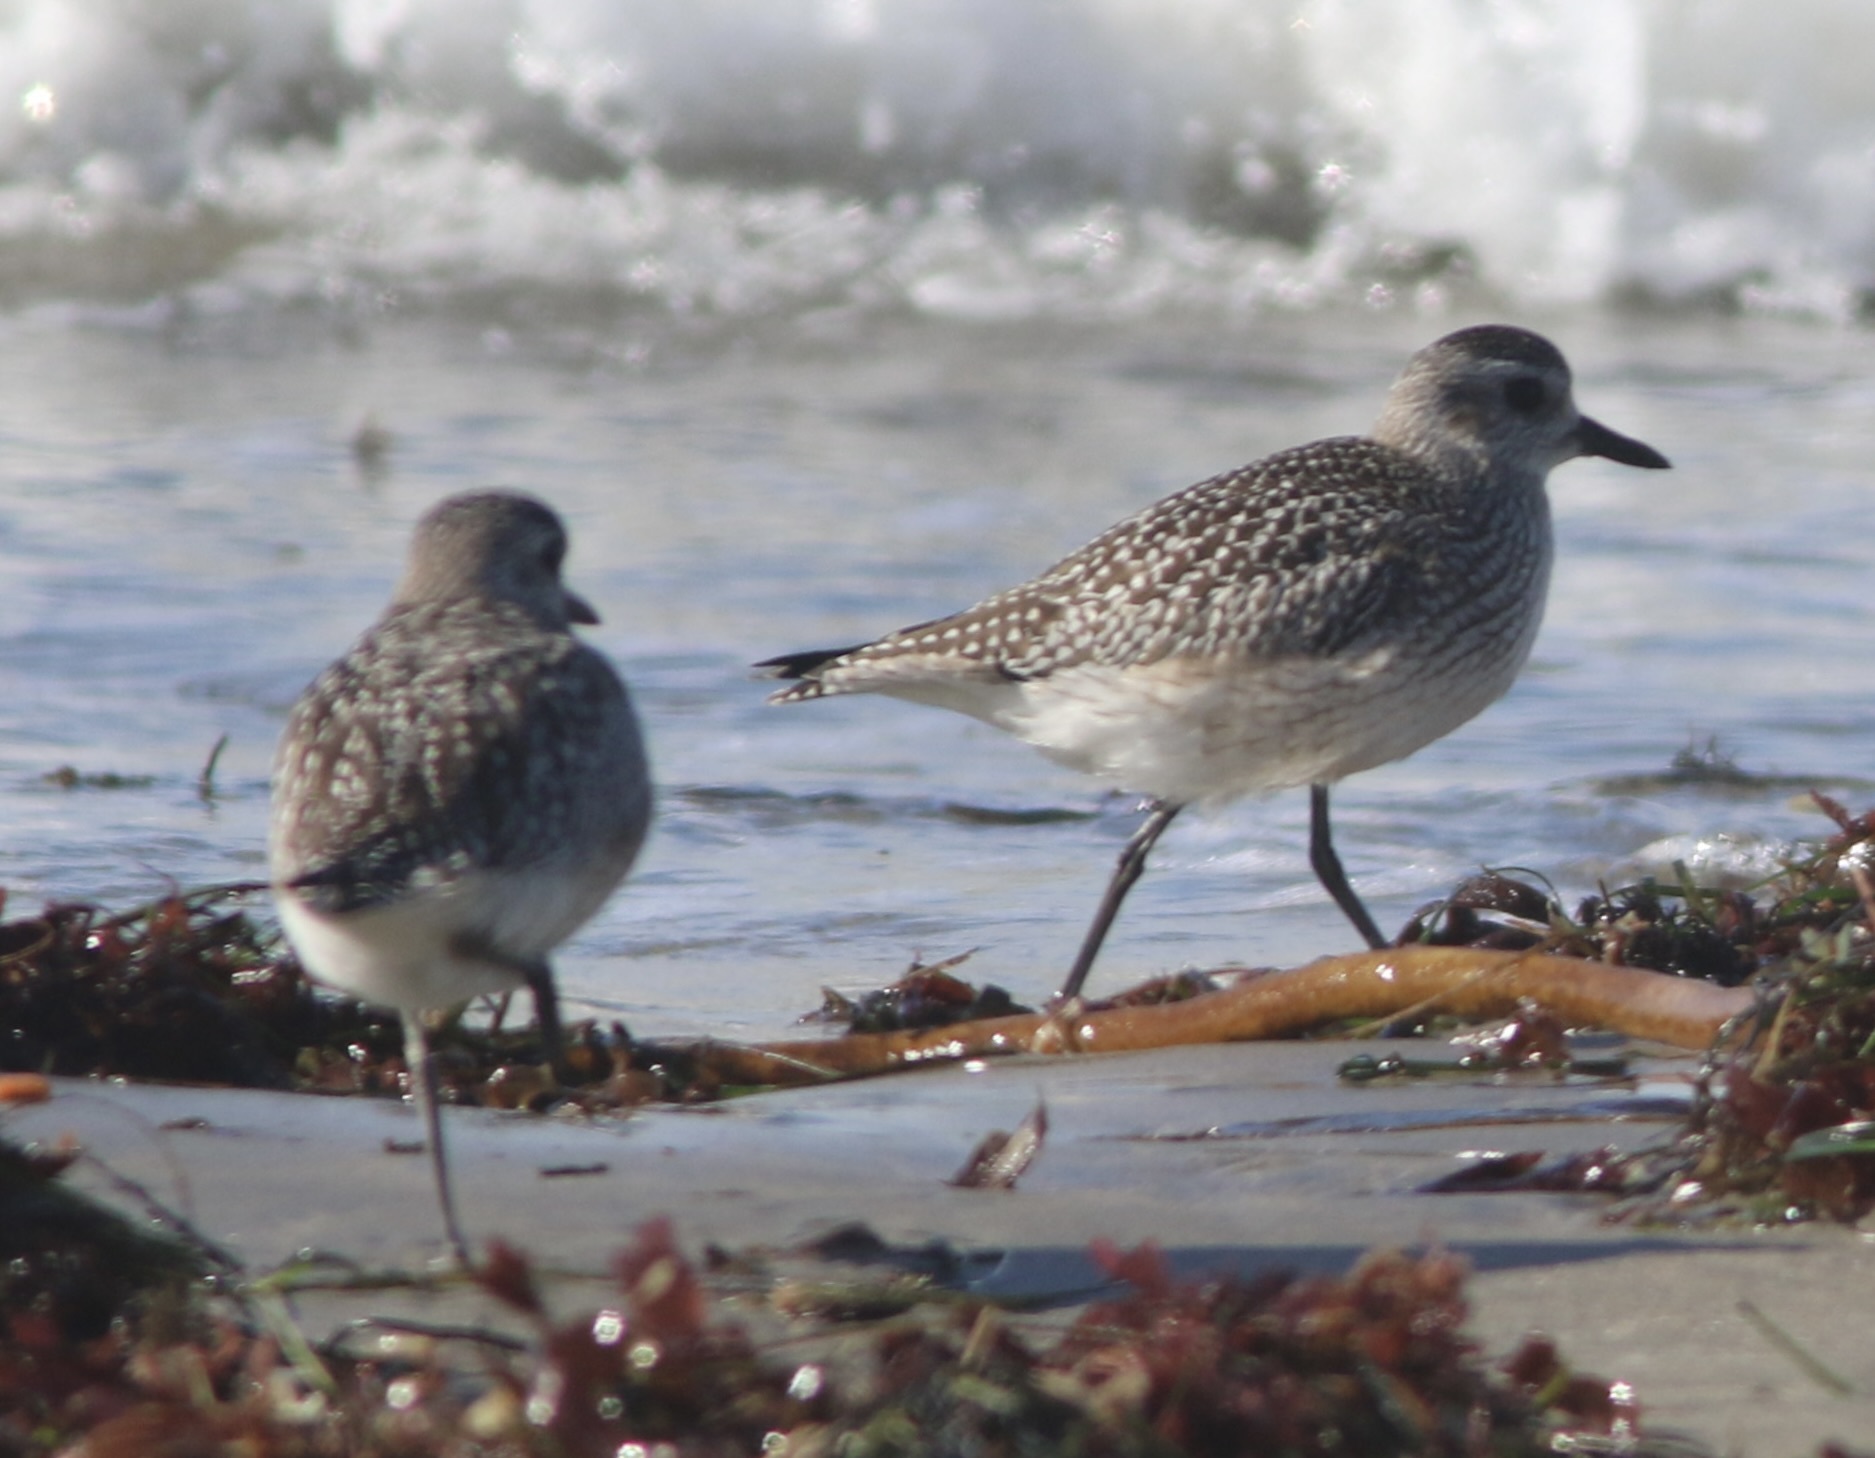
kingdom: Animalia
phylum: Chordata
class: Aves
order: Charadriiformes
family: Charadriidae
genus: Pluvialis
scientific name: Pluvialis squatarola
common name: Grey plover
